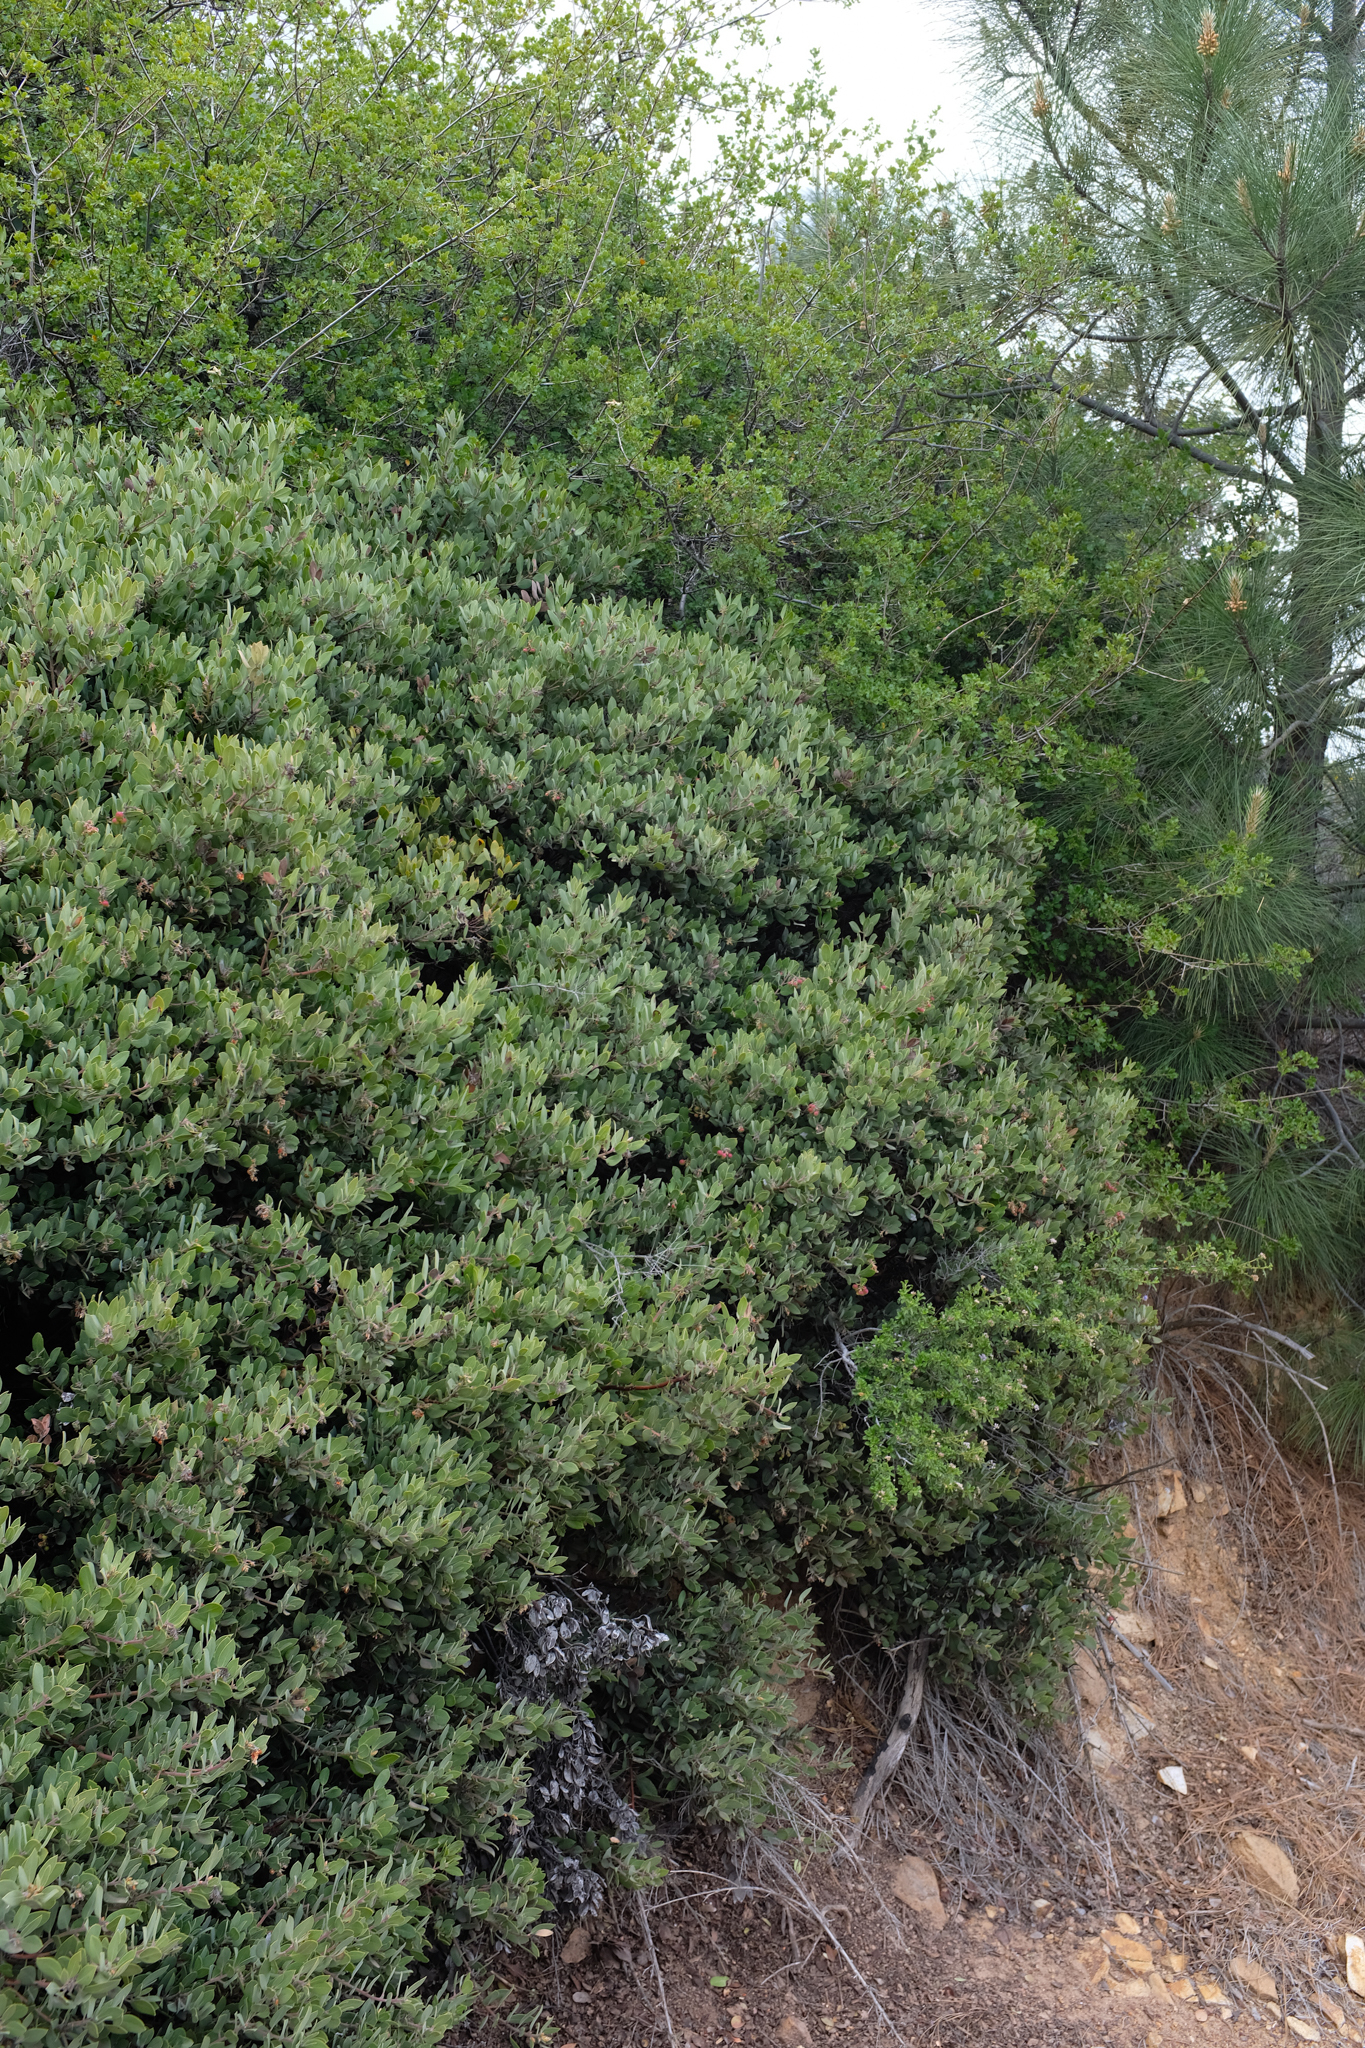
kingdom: Plantae
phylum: Tracheophyta
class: Magnoliopsida
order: Ericales
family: Ericaceae
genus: Arctostaphylos
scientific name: Arctostaphylos glandulosa
